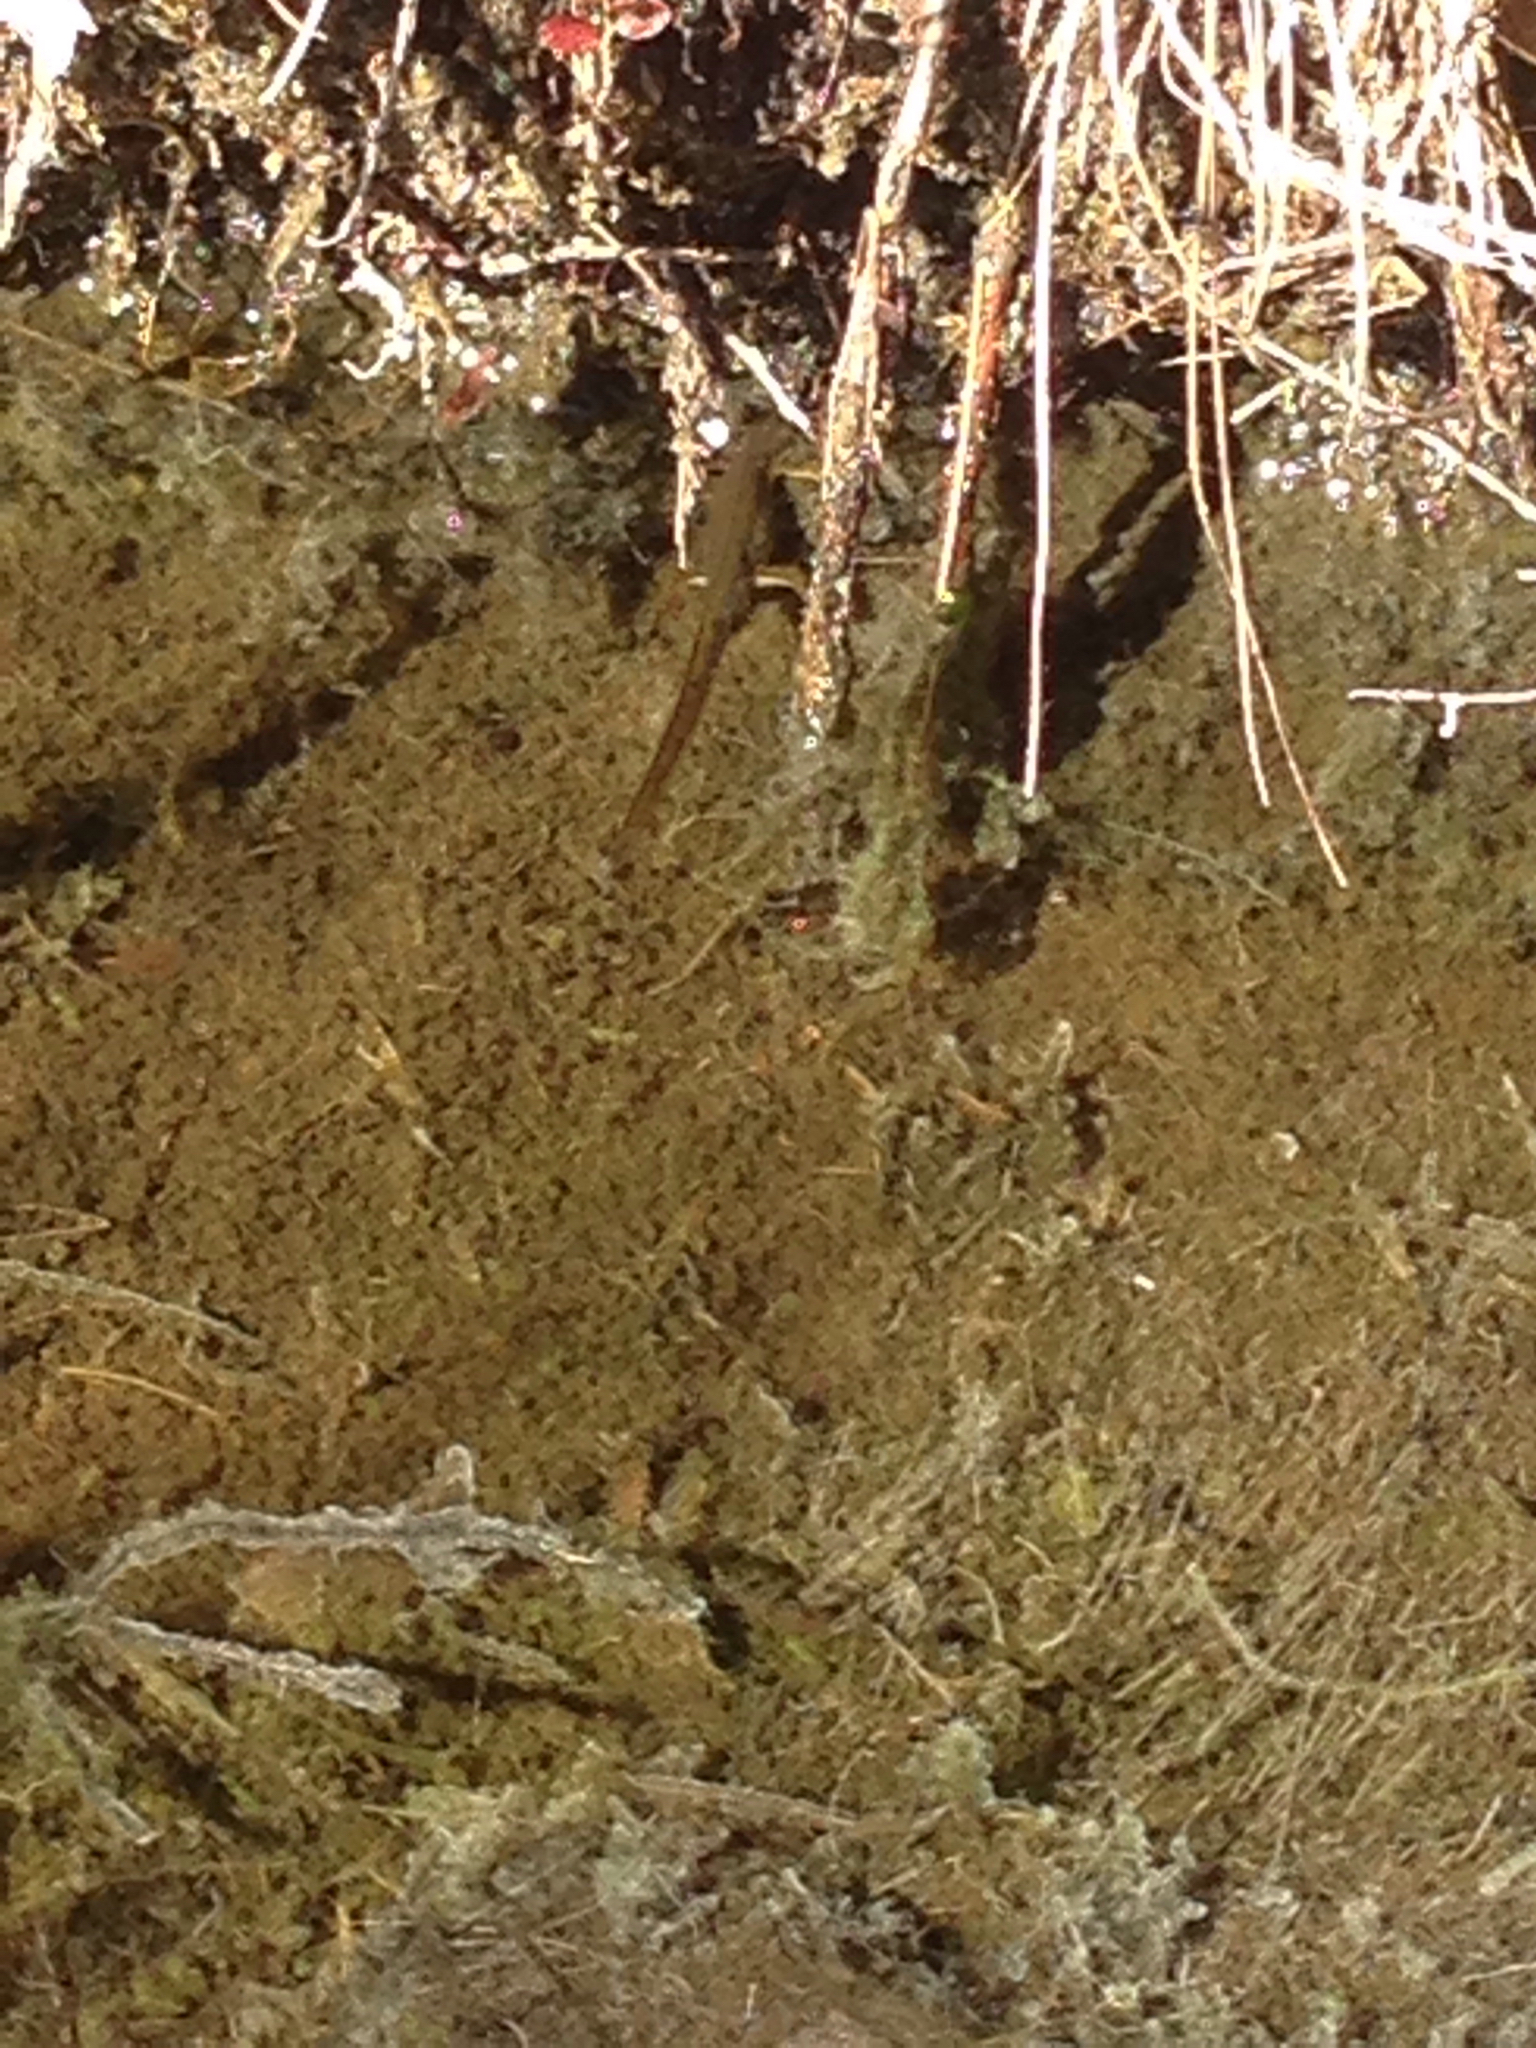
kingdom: Animalia
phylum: Chordata
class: Amphibia
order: Caudata
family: Salamandridae
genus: Notophthalmus
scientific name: Notophthalmus viridescens
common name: Eastern newt
